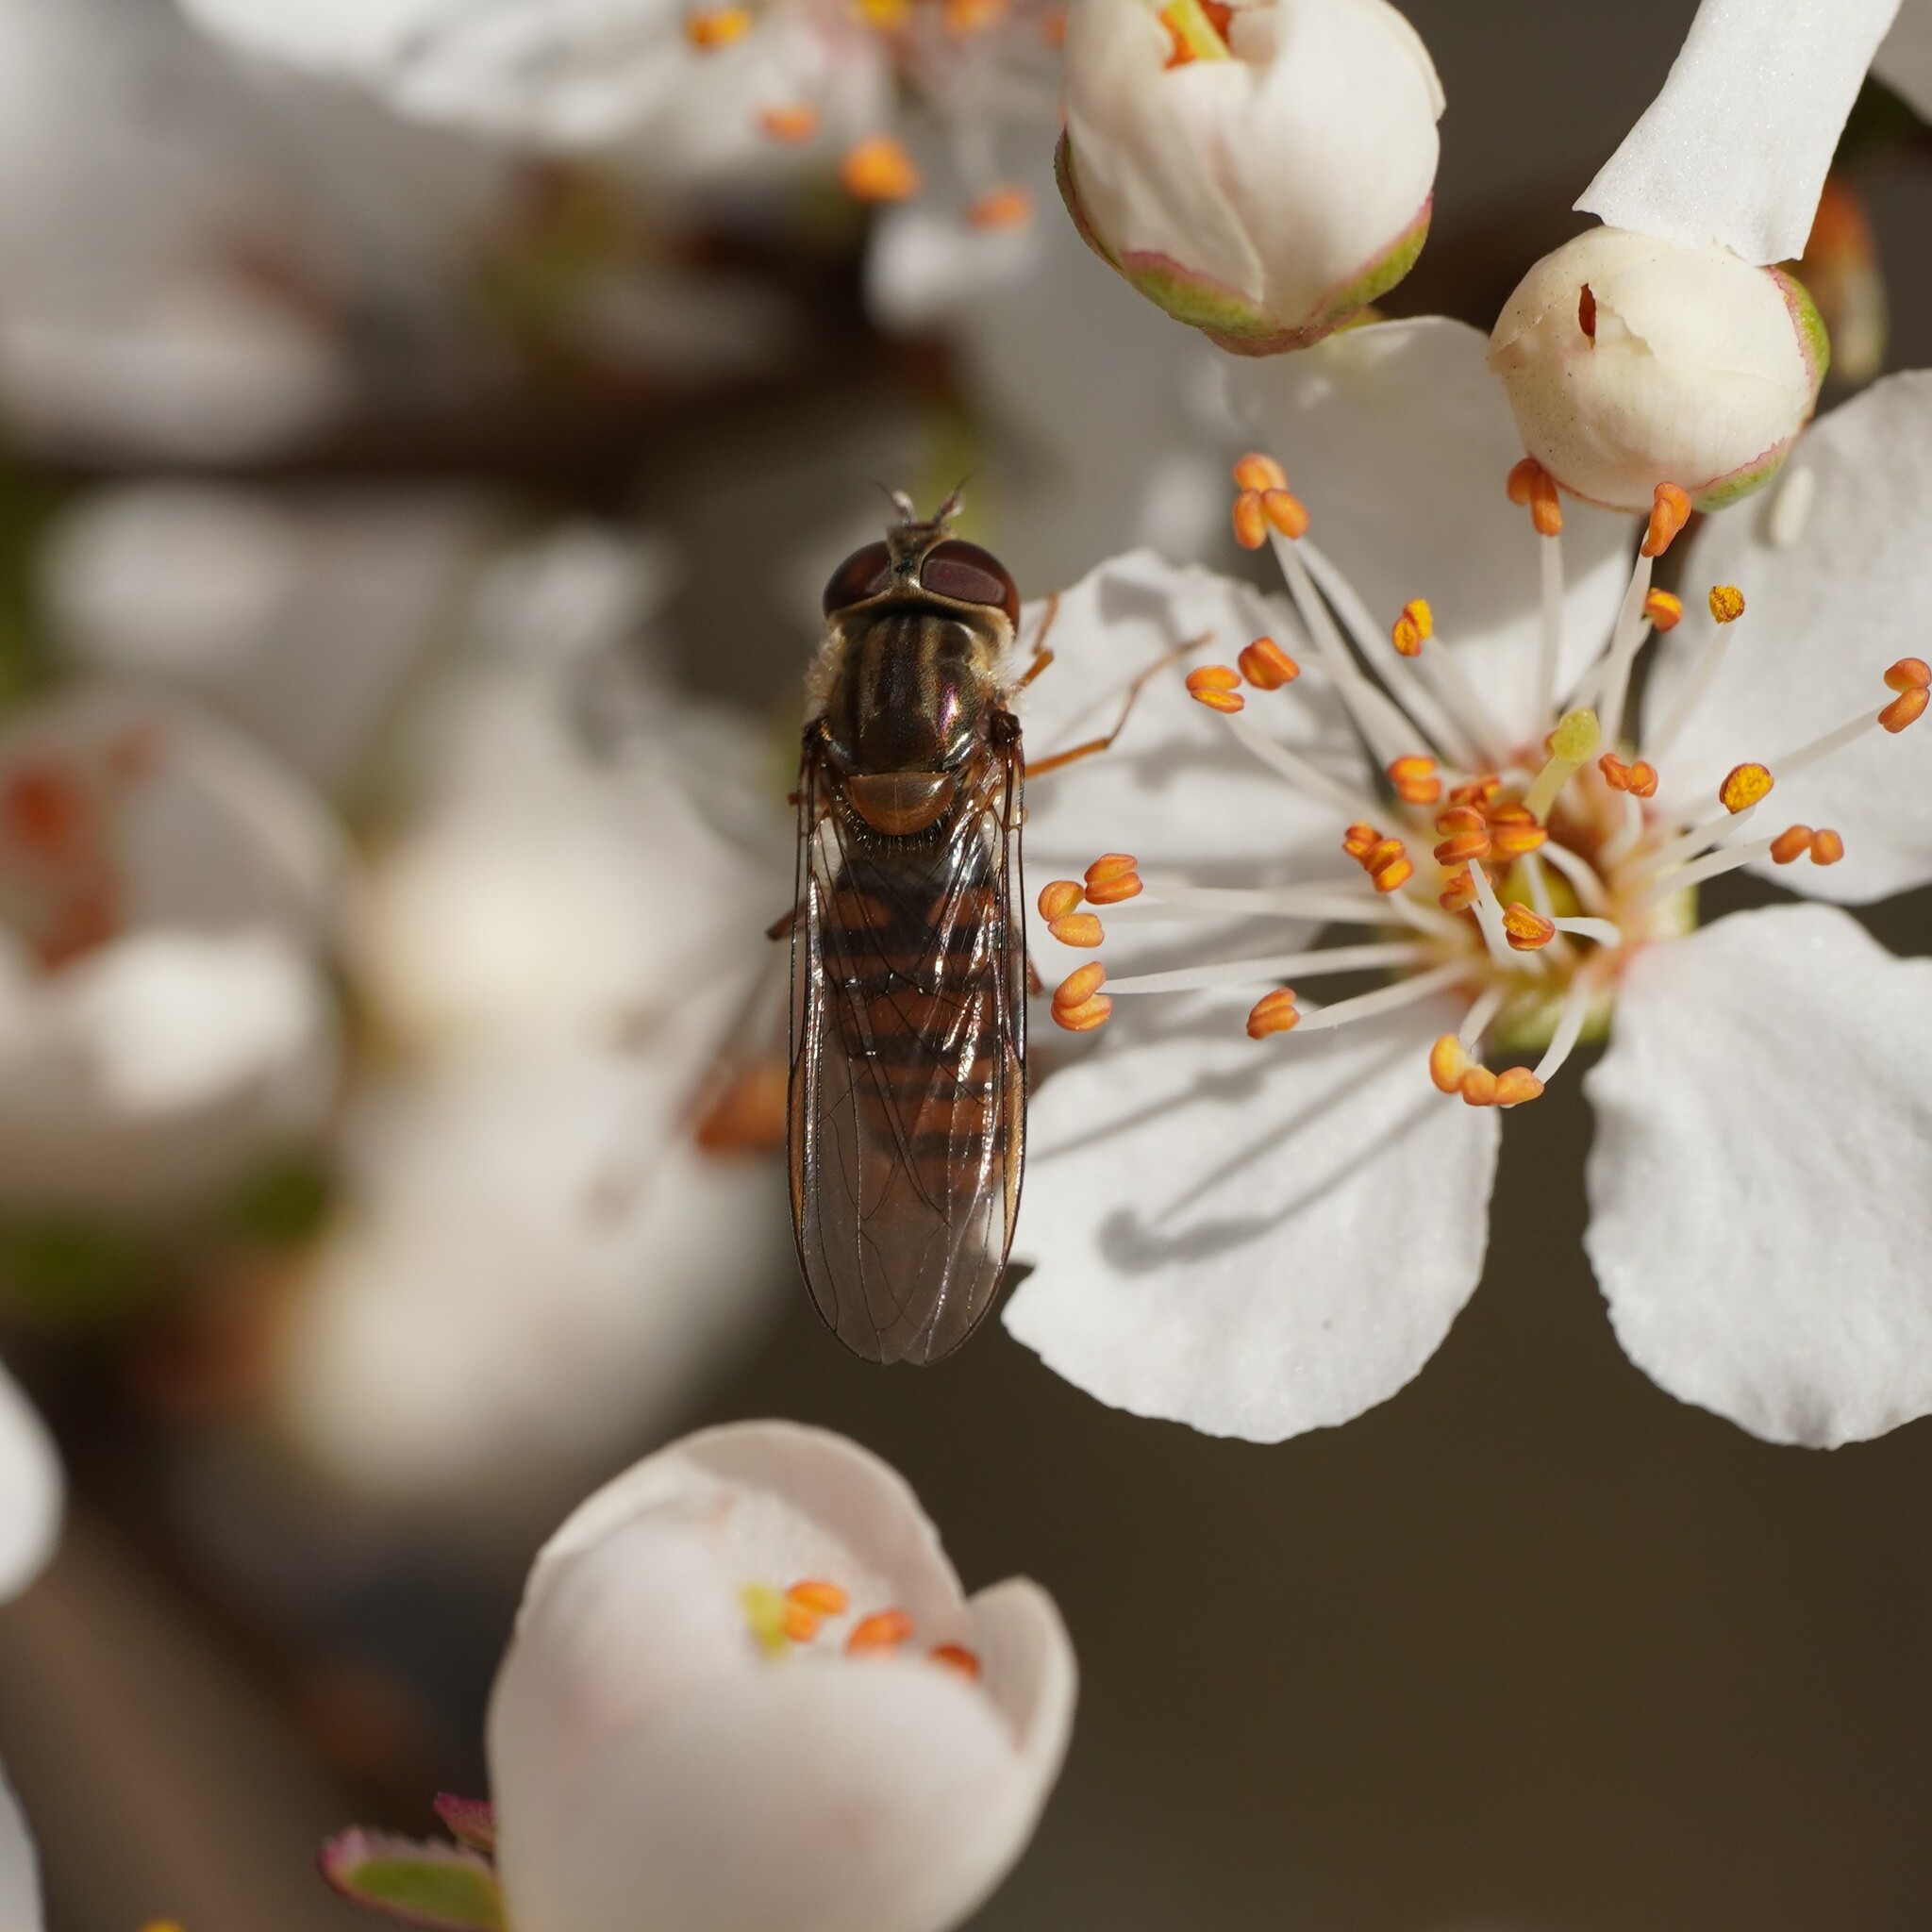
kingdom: Animalia
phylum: Arthropoda
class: Insecta
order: Diptera
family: Syrphidae
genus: Episyrphus
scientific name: Episyrphus balteatus
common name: Marmalade hoverfly
